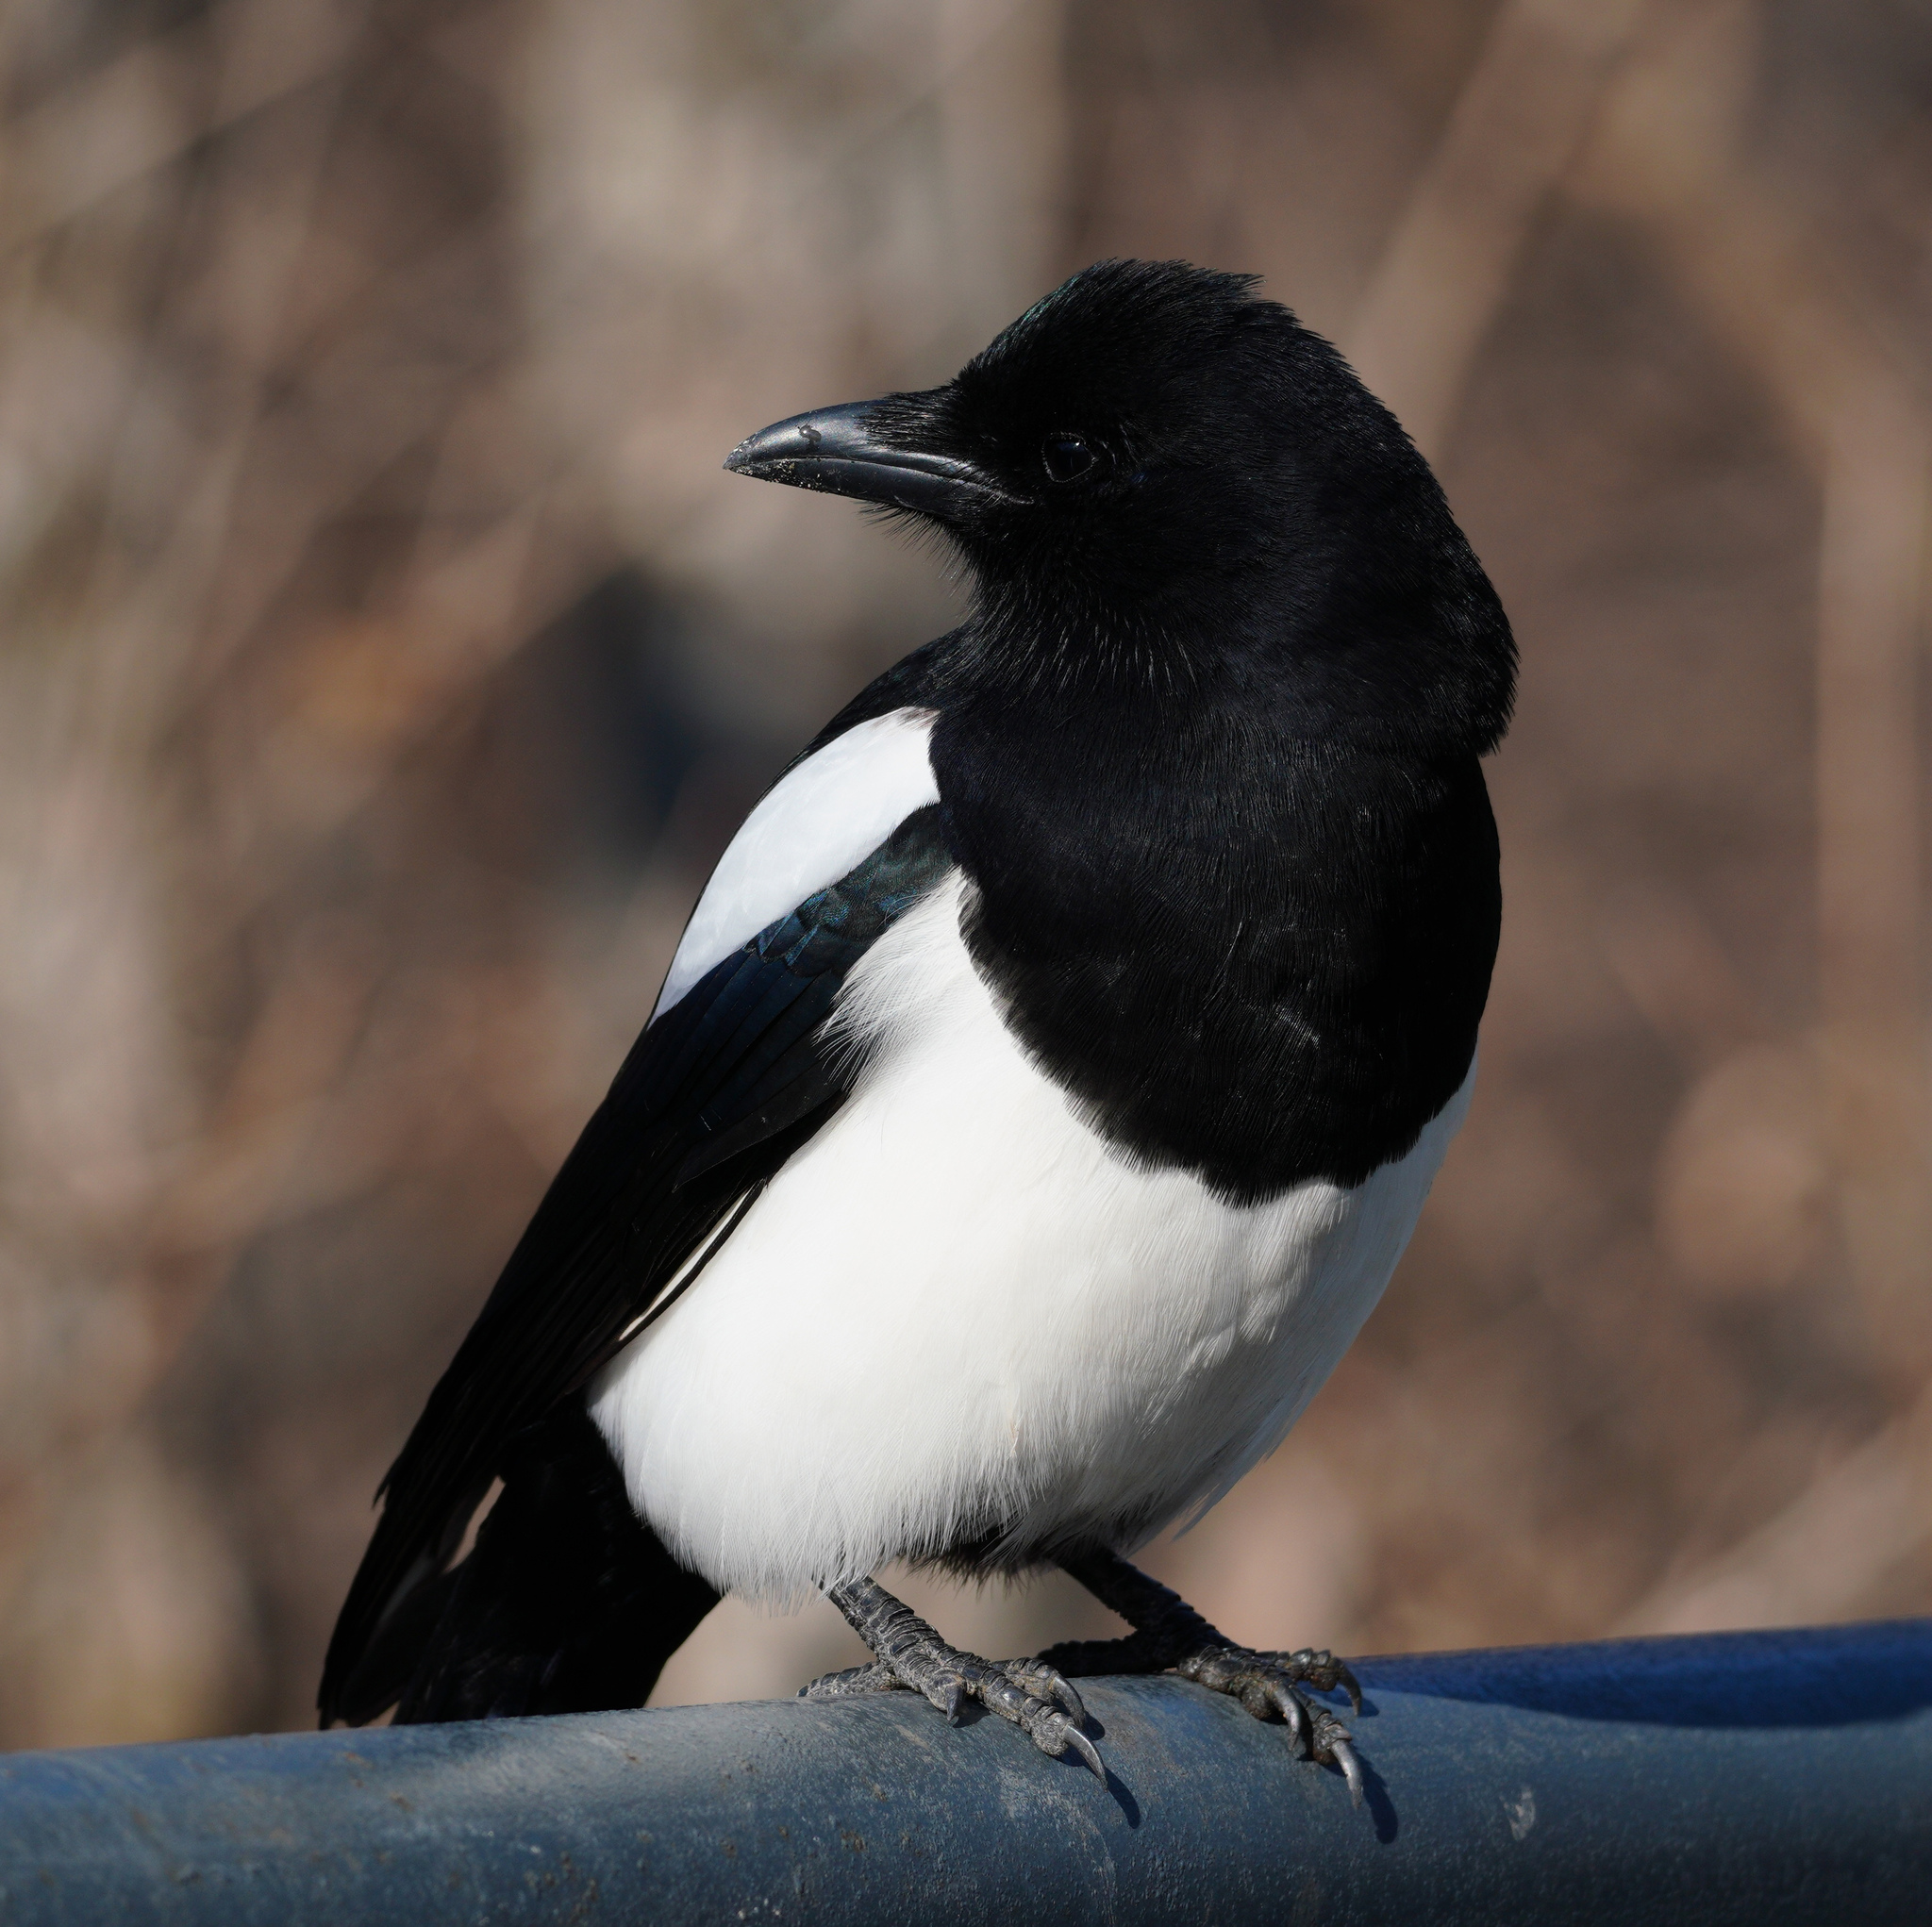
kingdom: Animalia
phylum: Chordata
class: Aves
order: Passeriformes
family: Corvidae
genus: Pica
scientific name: Pica serica
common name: Oriental magpie
